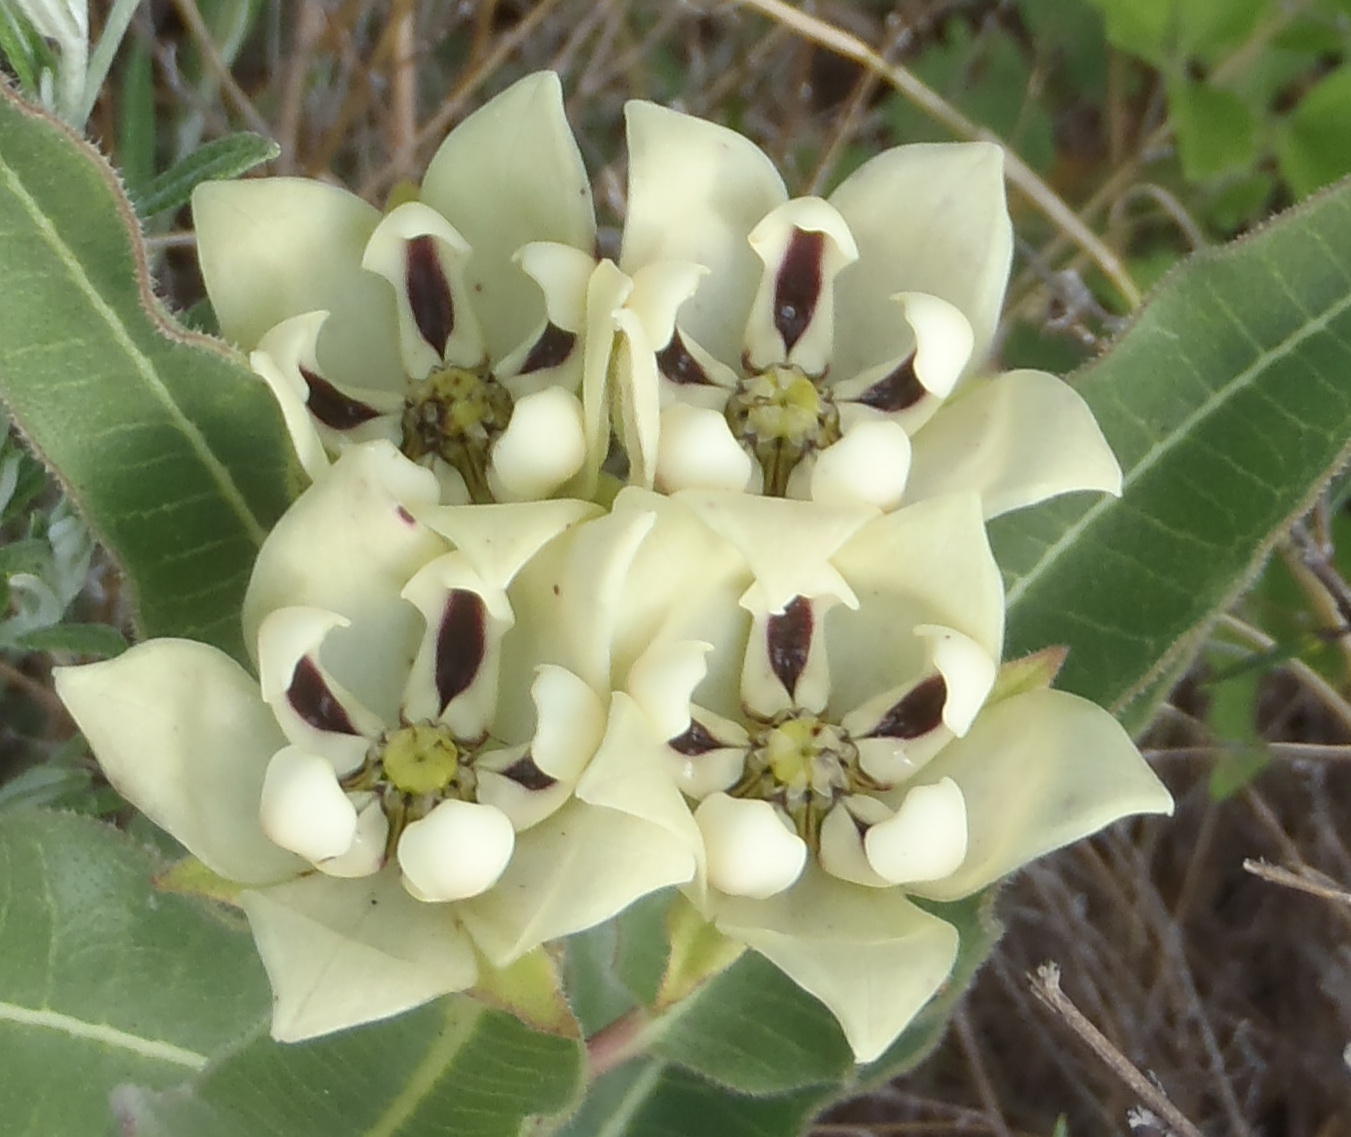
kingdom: Plantae
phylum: Tracheophyta
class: Magnoliopsida
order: Gentianales
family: Apocynaceae
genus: Pachycarpus
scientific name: Pachycarpus schinzianus
